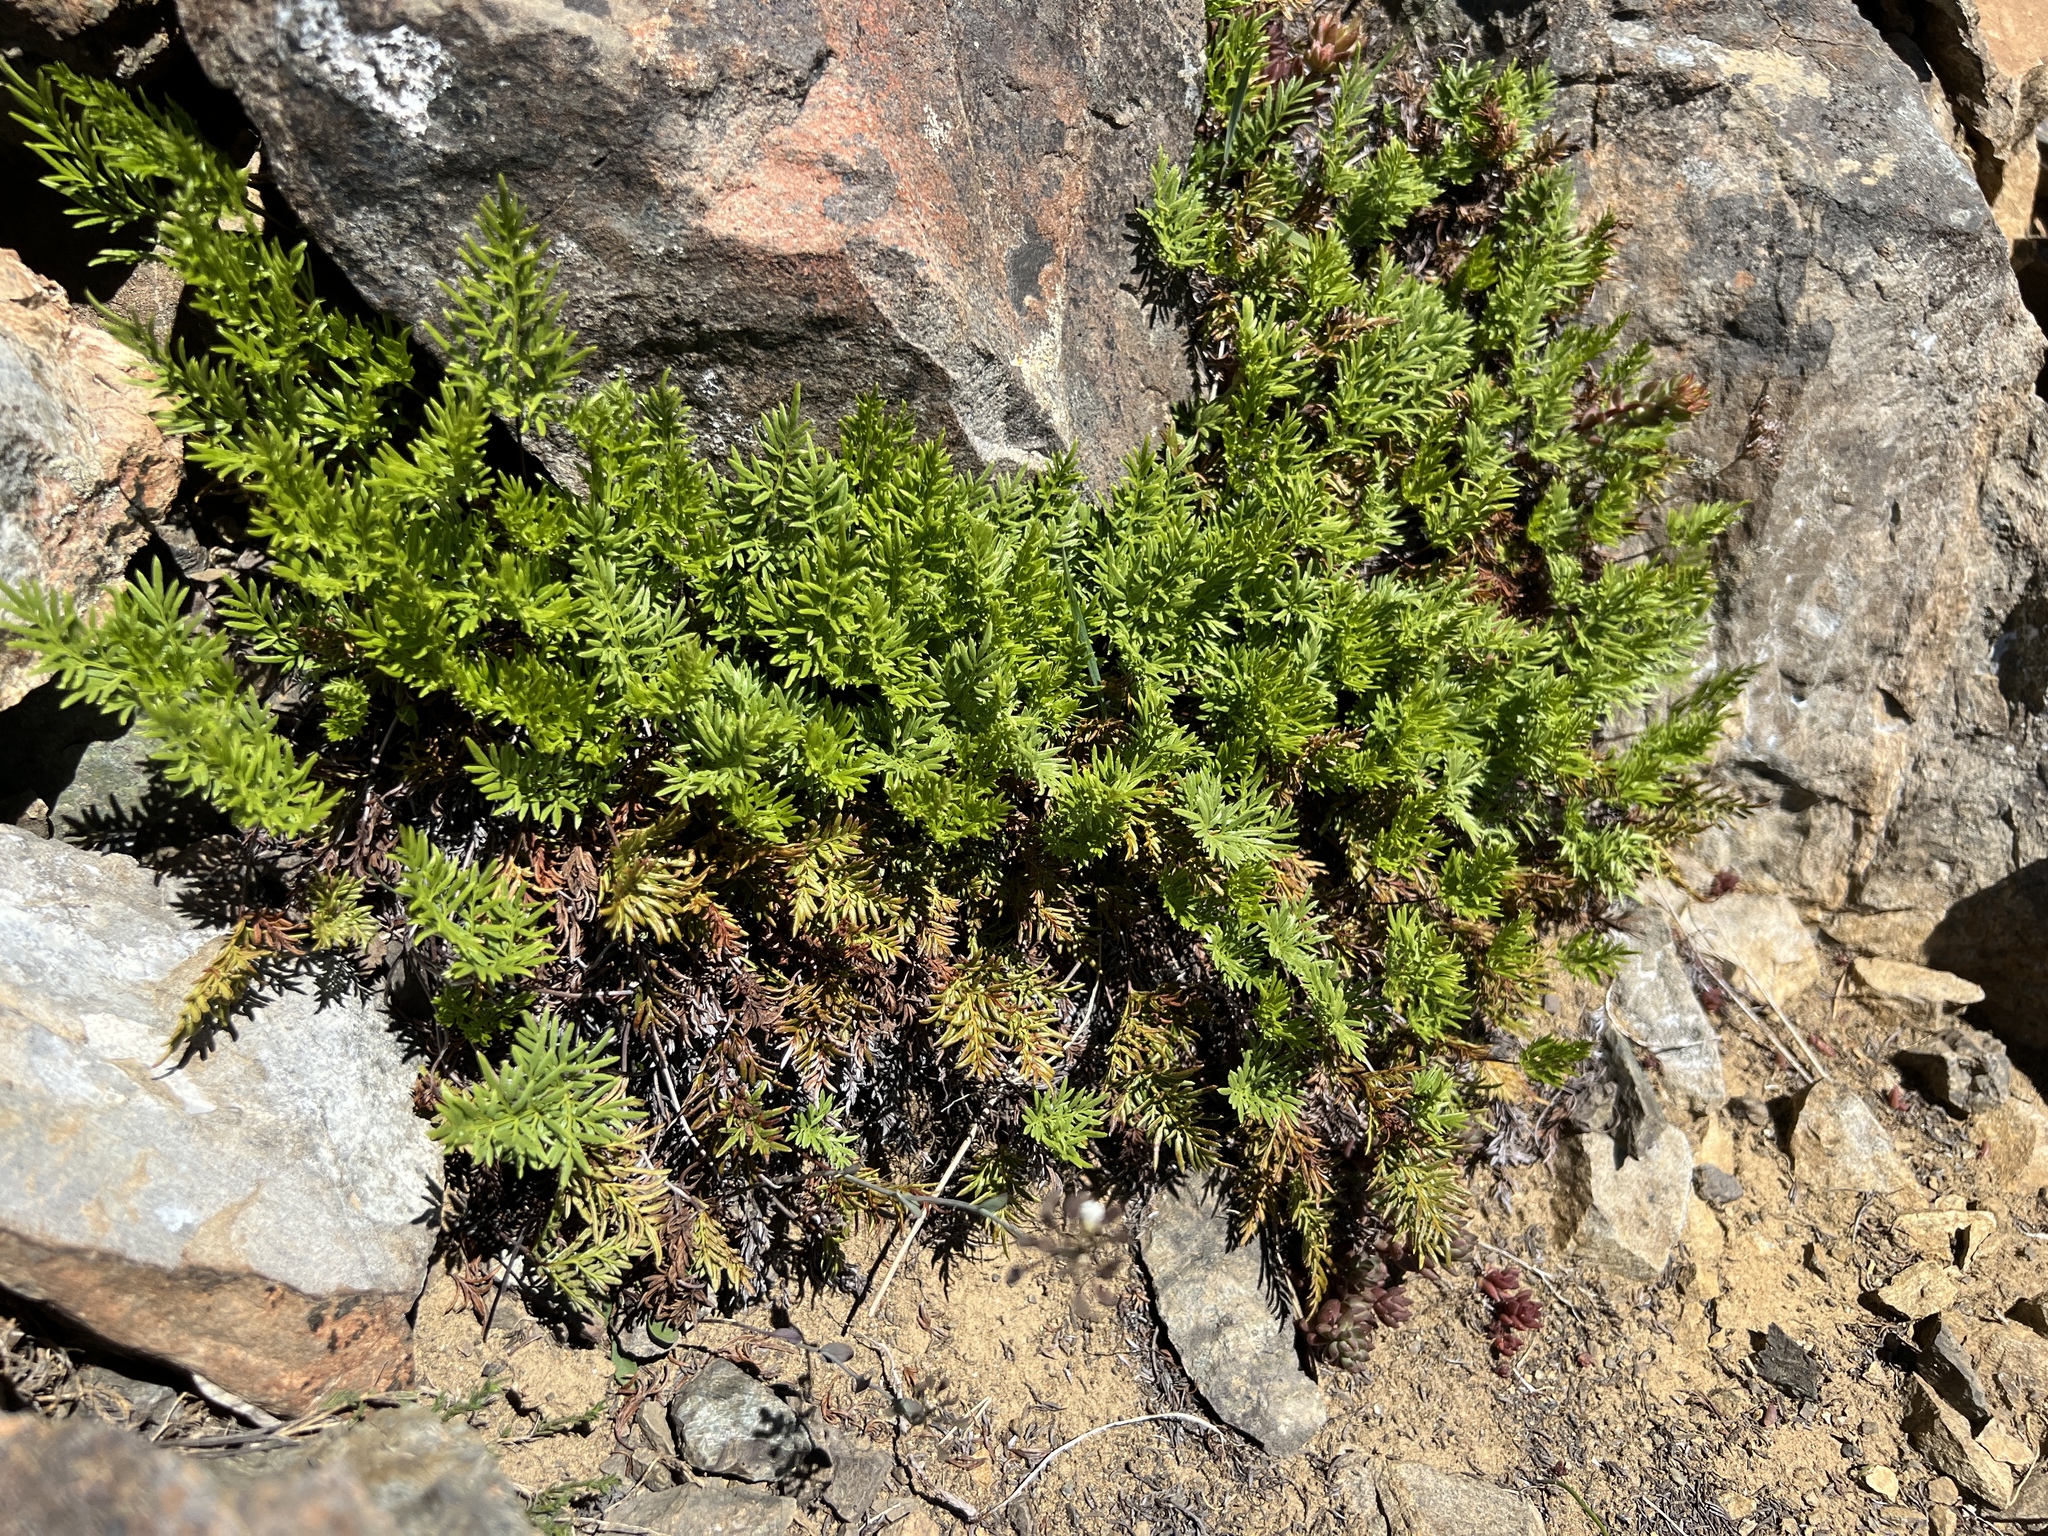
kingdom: Plantae
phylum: Tracheophyta
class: Polypodiopsida
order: Polypodiales
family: Pteridaceae
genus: Aspidotis
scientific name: Aspidotis densa
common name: Indian's dream
